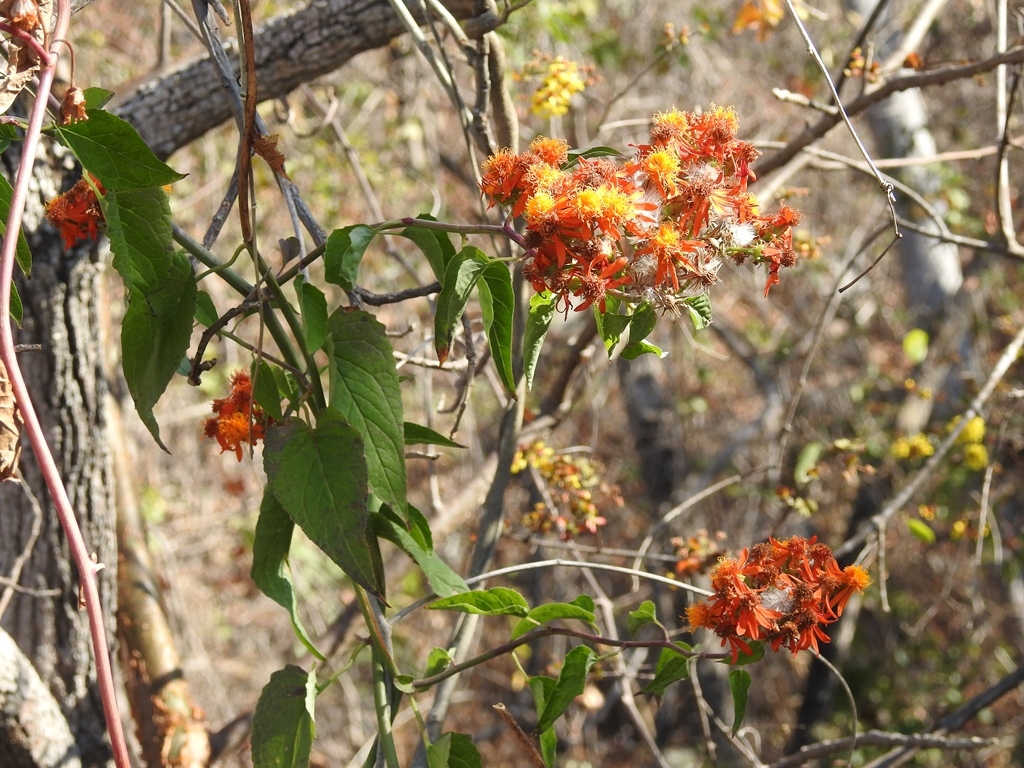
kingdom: Plantae
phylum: Tracheophyta
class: Magnoliopsida
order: Asterales
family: Asteraceae
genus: Pseudogynoxys
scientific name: Pseudogynoxys haenkei
